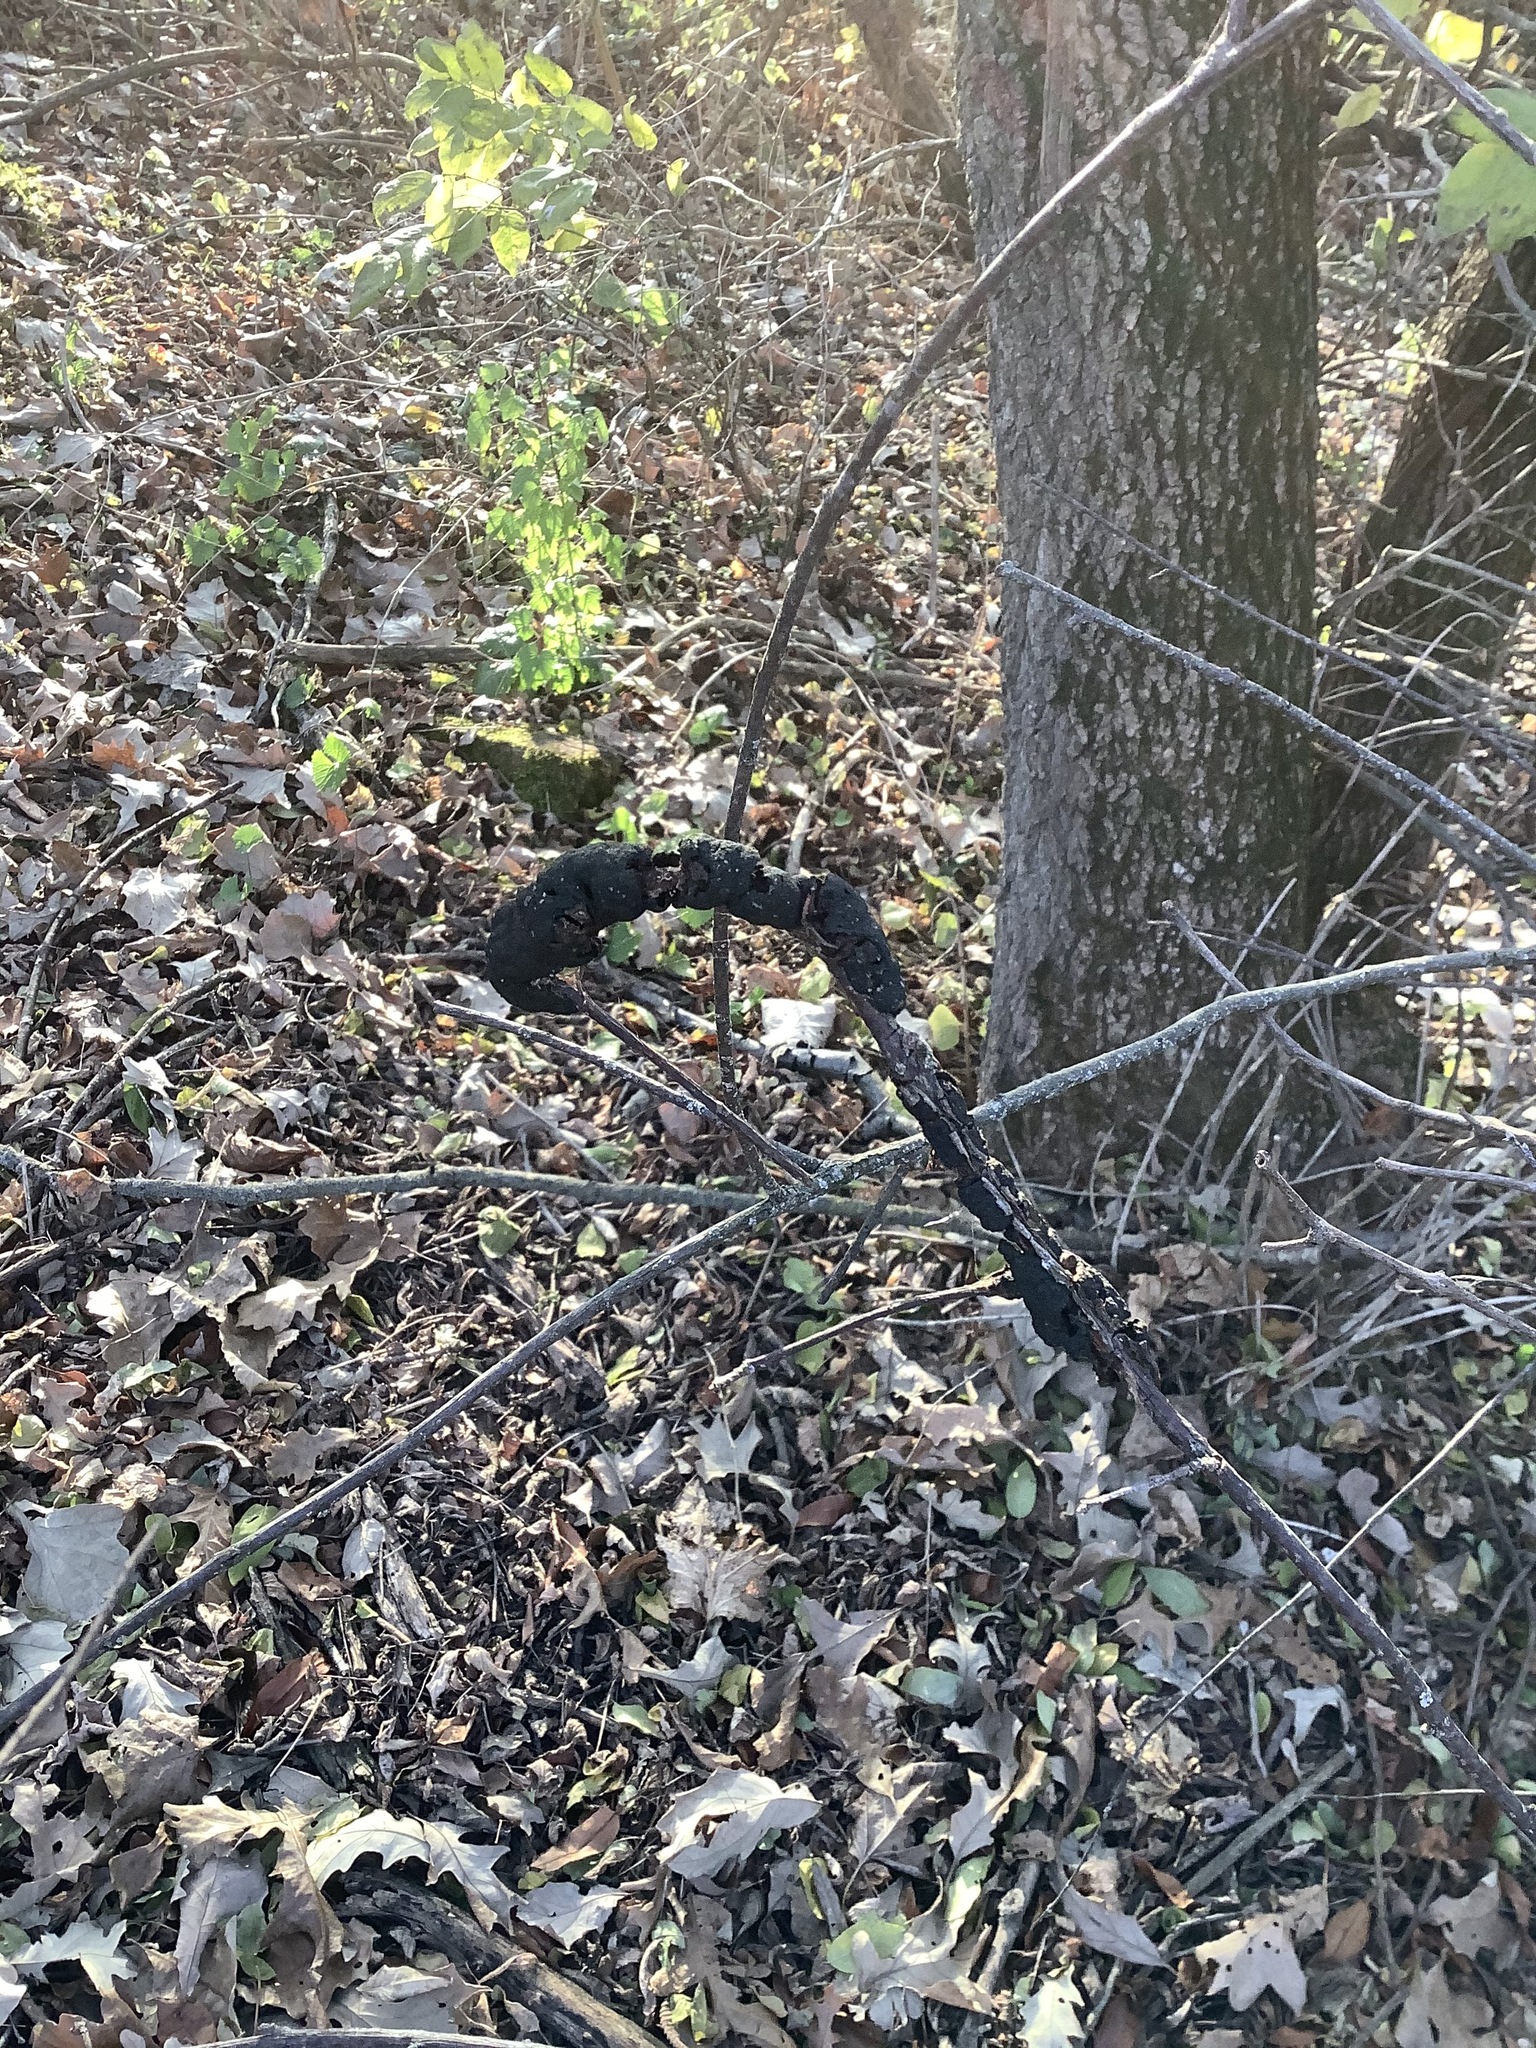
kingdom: Fungi
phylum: Ascomycota
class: Dothideomycetes
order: Venturiales
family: Venturiaceae
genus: Apiosporina
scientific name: Apiosporina morbosa
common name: Black knot
